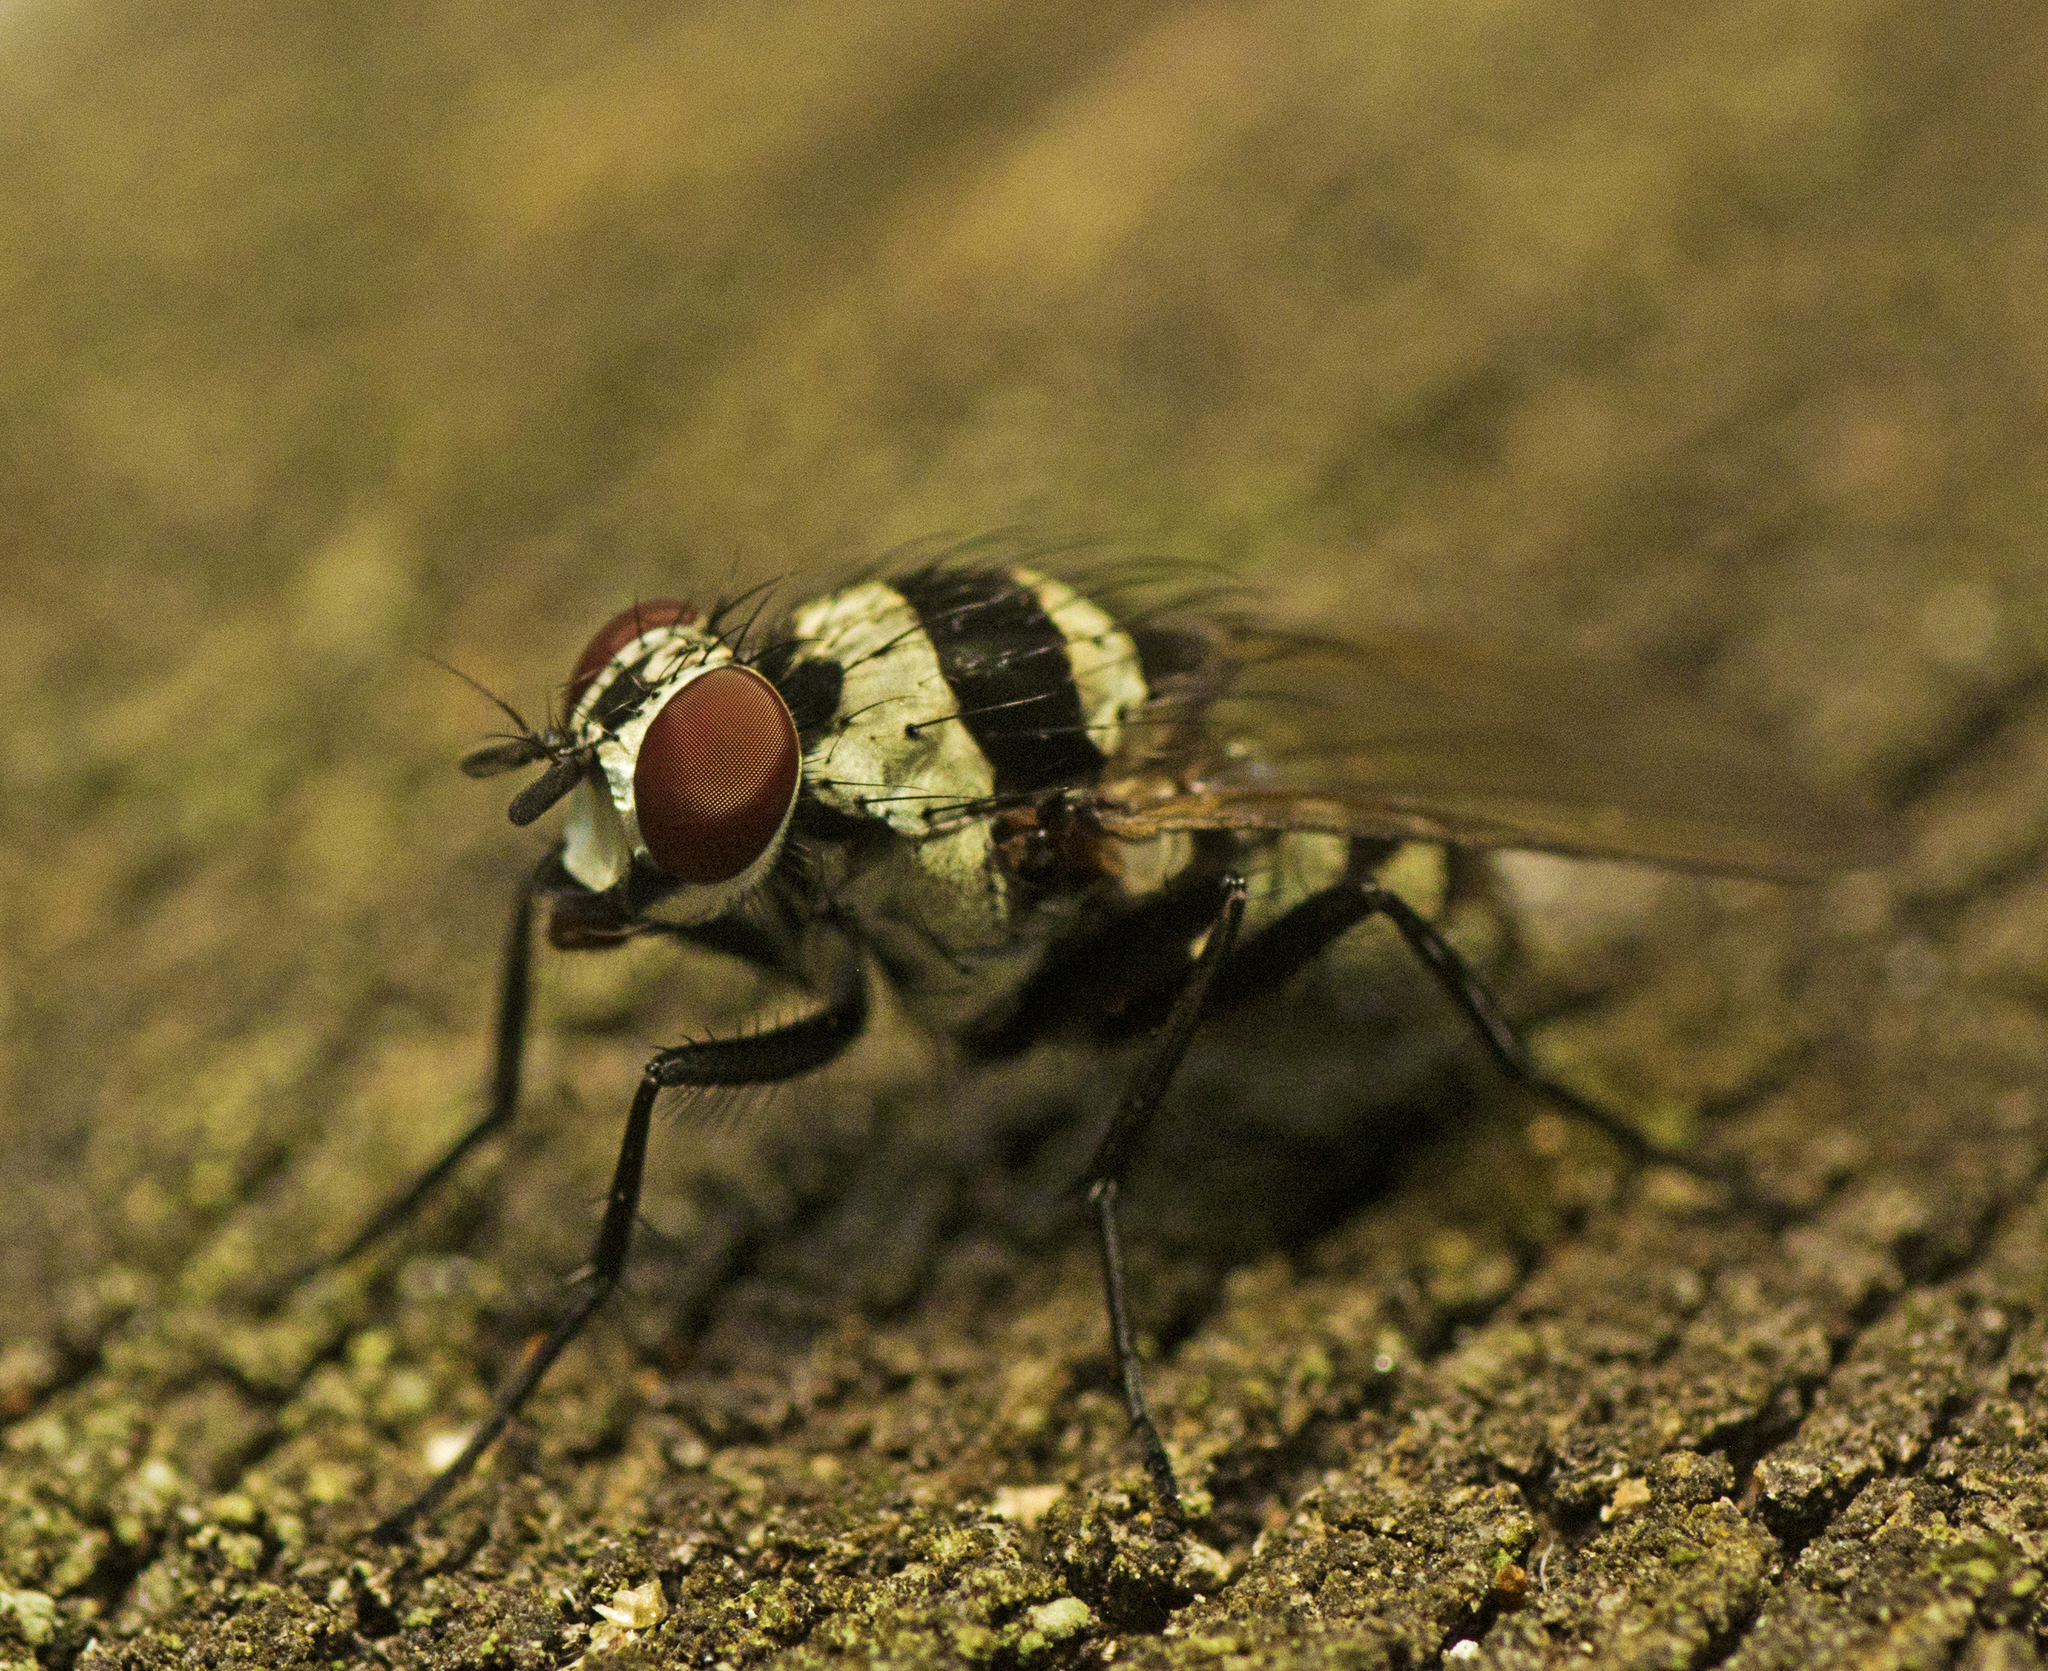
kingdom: Animalia
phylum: Arthropoda
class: Insecta
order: Diptera
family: Anthomyiidae
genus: Anthomyia
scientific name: Anthomyia medialis
